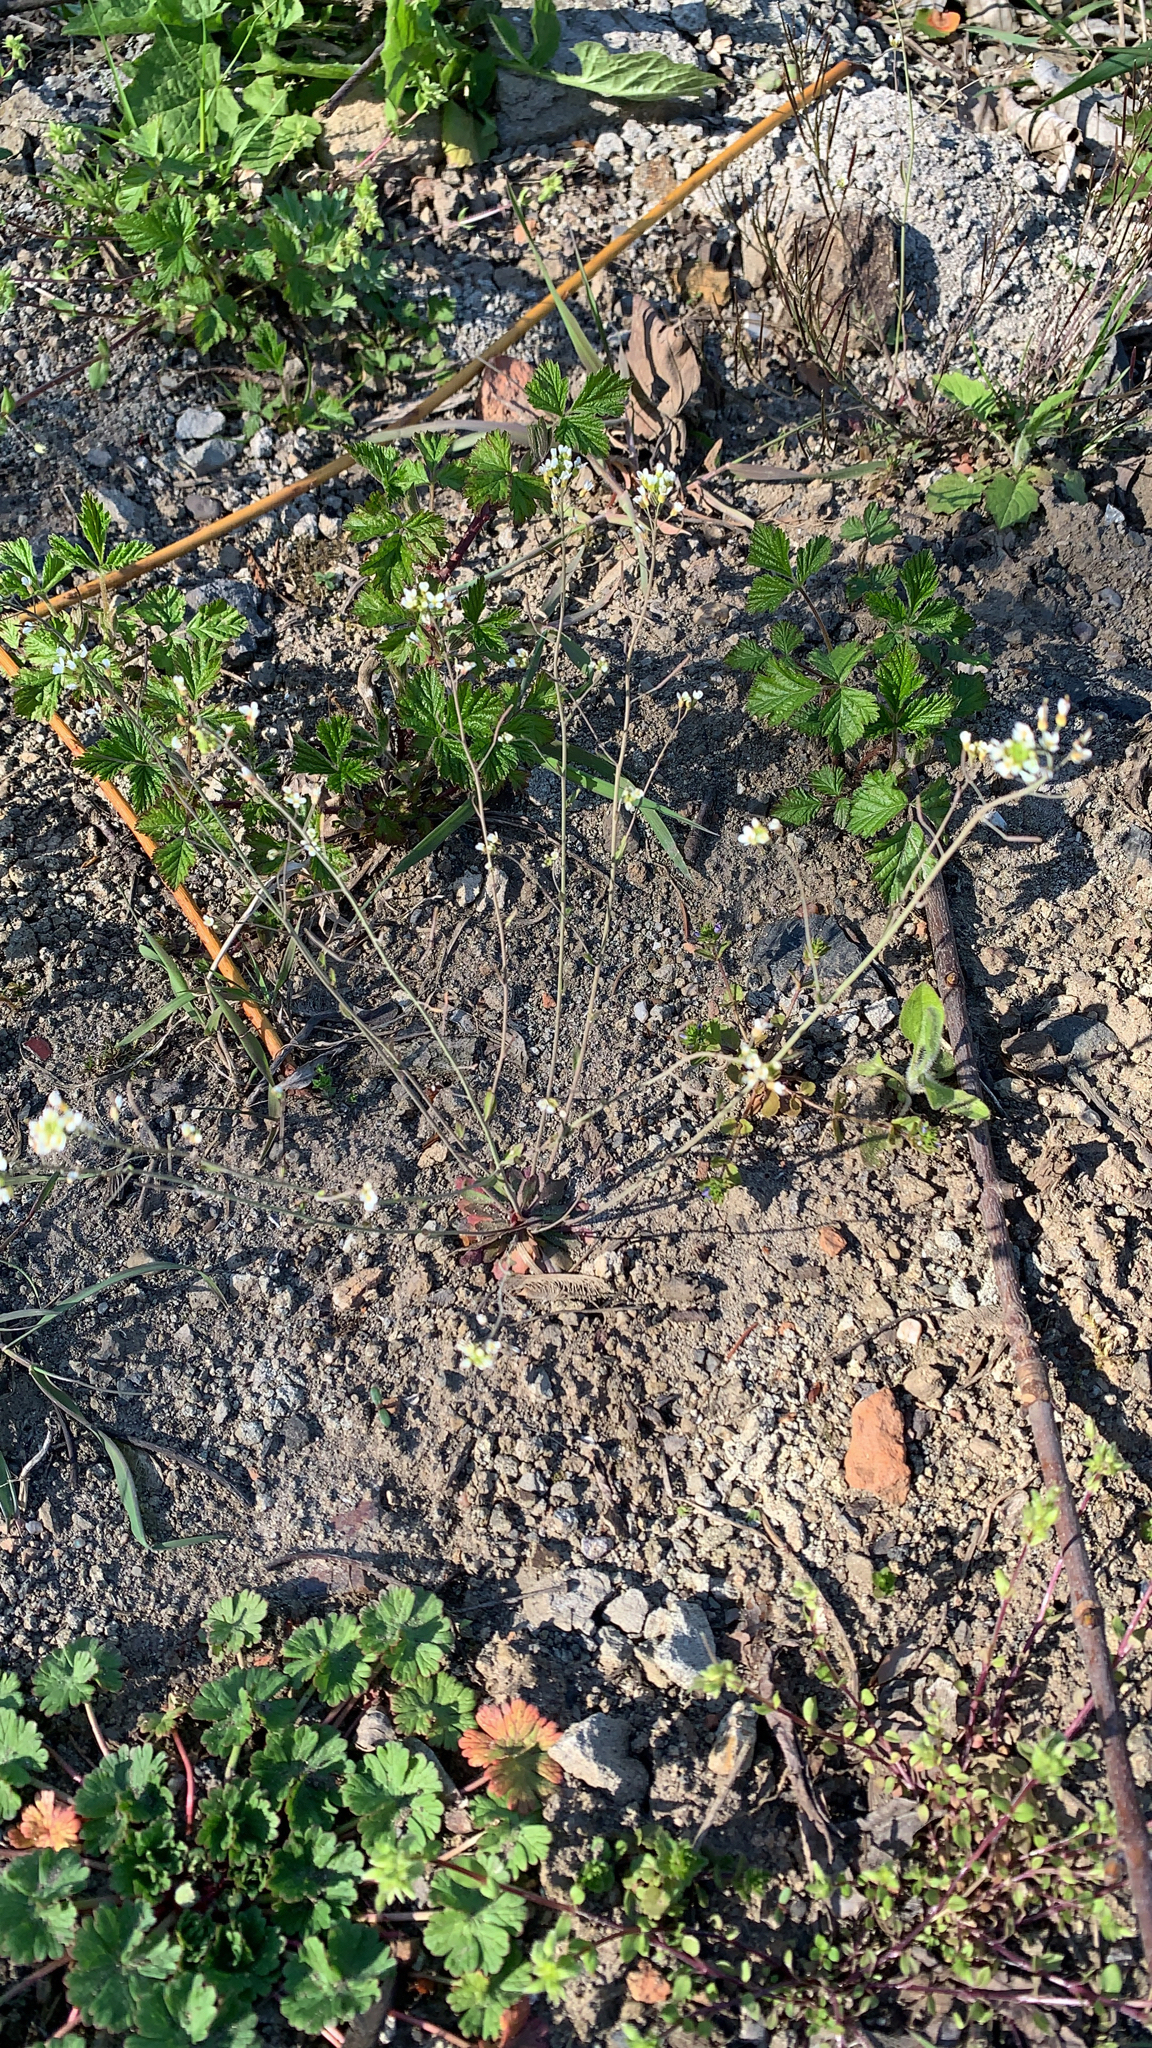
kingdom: Plantae
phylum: Tracheophyta
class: Magnoliopsida
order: Brassicales
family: Brassicaceae
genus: Arabidopsis
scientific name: Arabidopsis thaliana
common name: Thale cress
